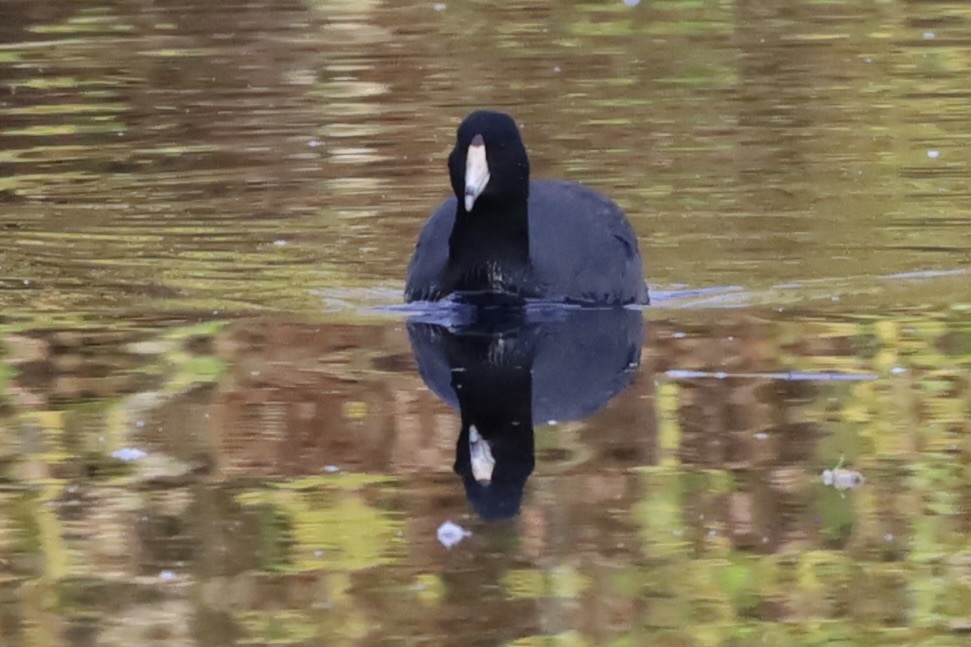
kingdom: Animalia
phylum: Chordata
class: Aves
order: Gruiformes
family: Rallidae
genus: Fulica
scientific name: Fulica americana
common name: American coot
